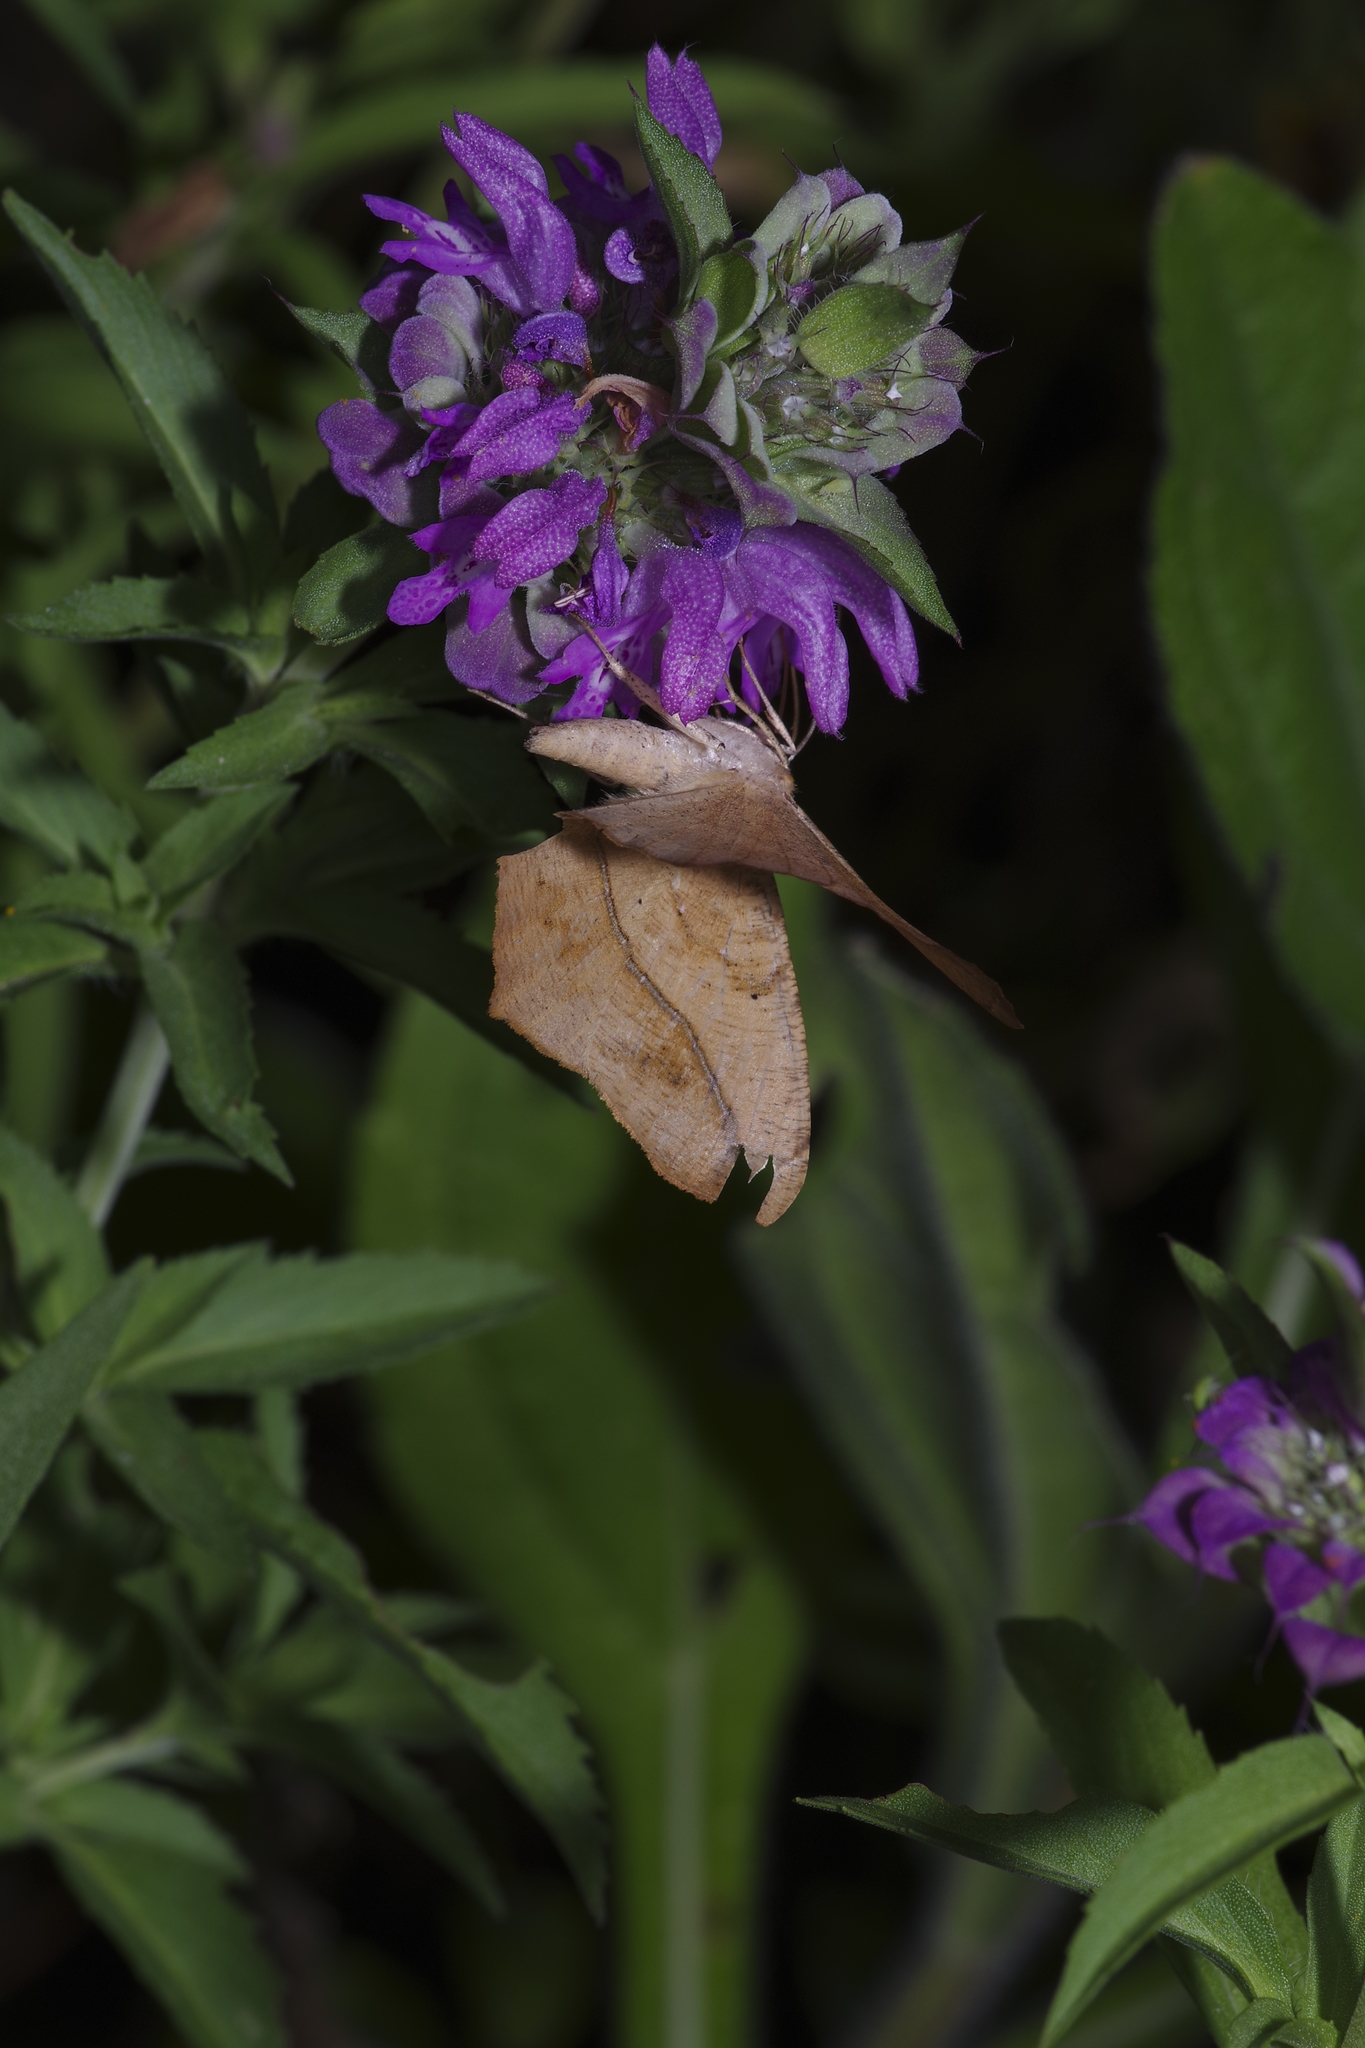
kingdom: Animalia
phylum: Arthropoda
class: Insecta
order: Lepidoptera
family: Geometridae
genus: Prochoerodes
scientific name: Prochoerodes lineola
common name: Large maple spanworm
